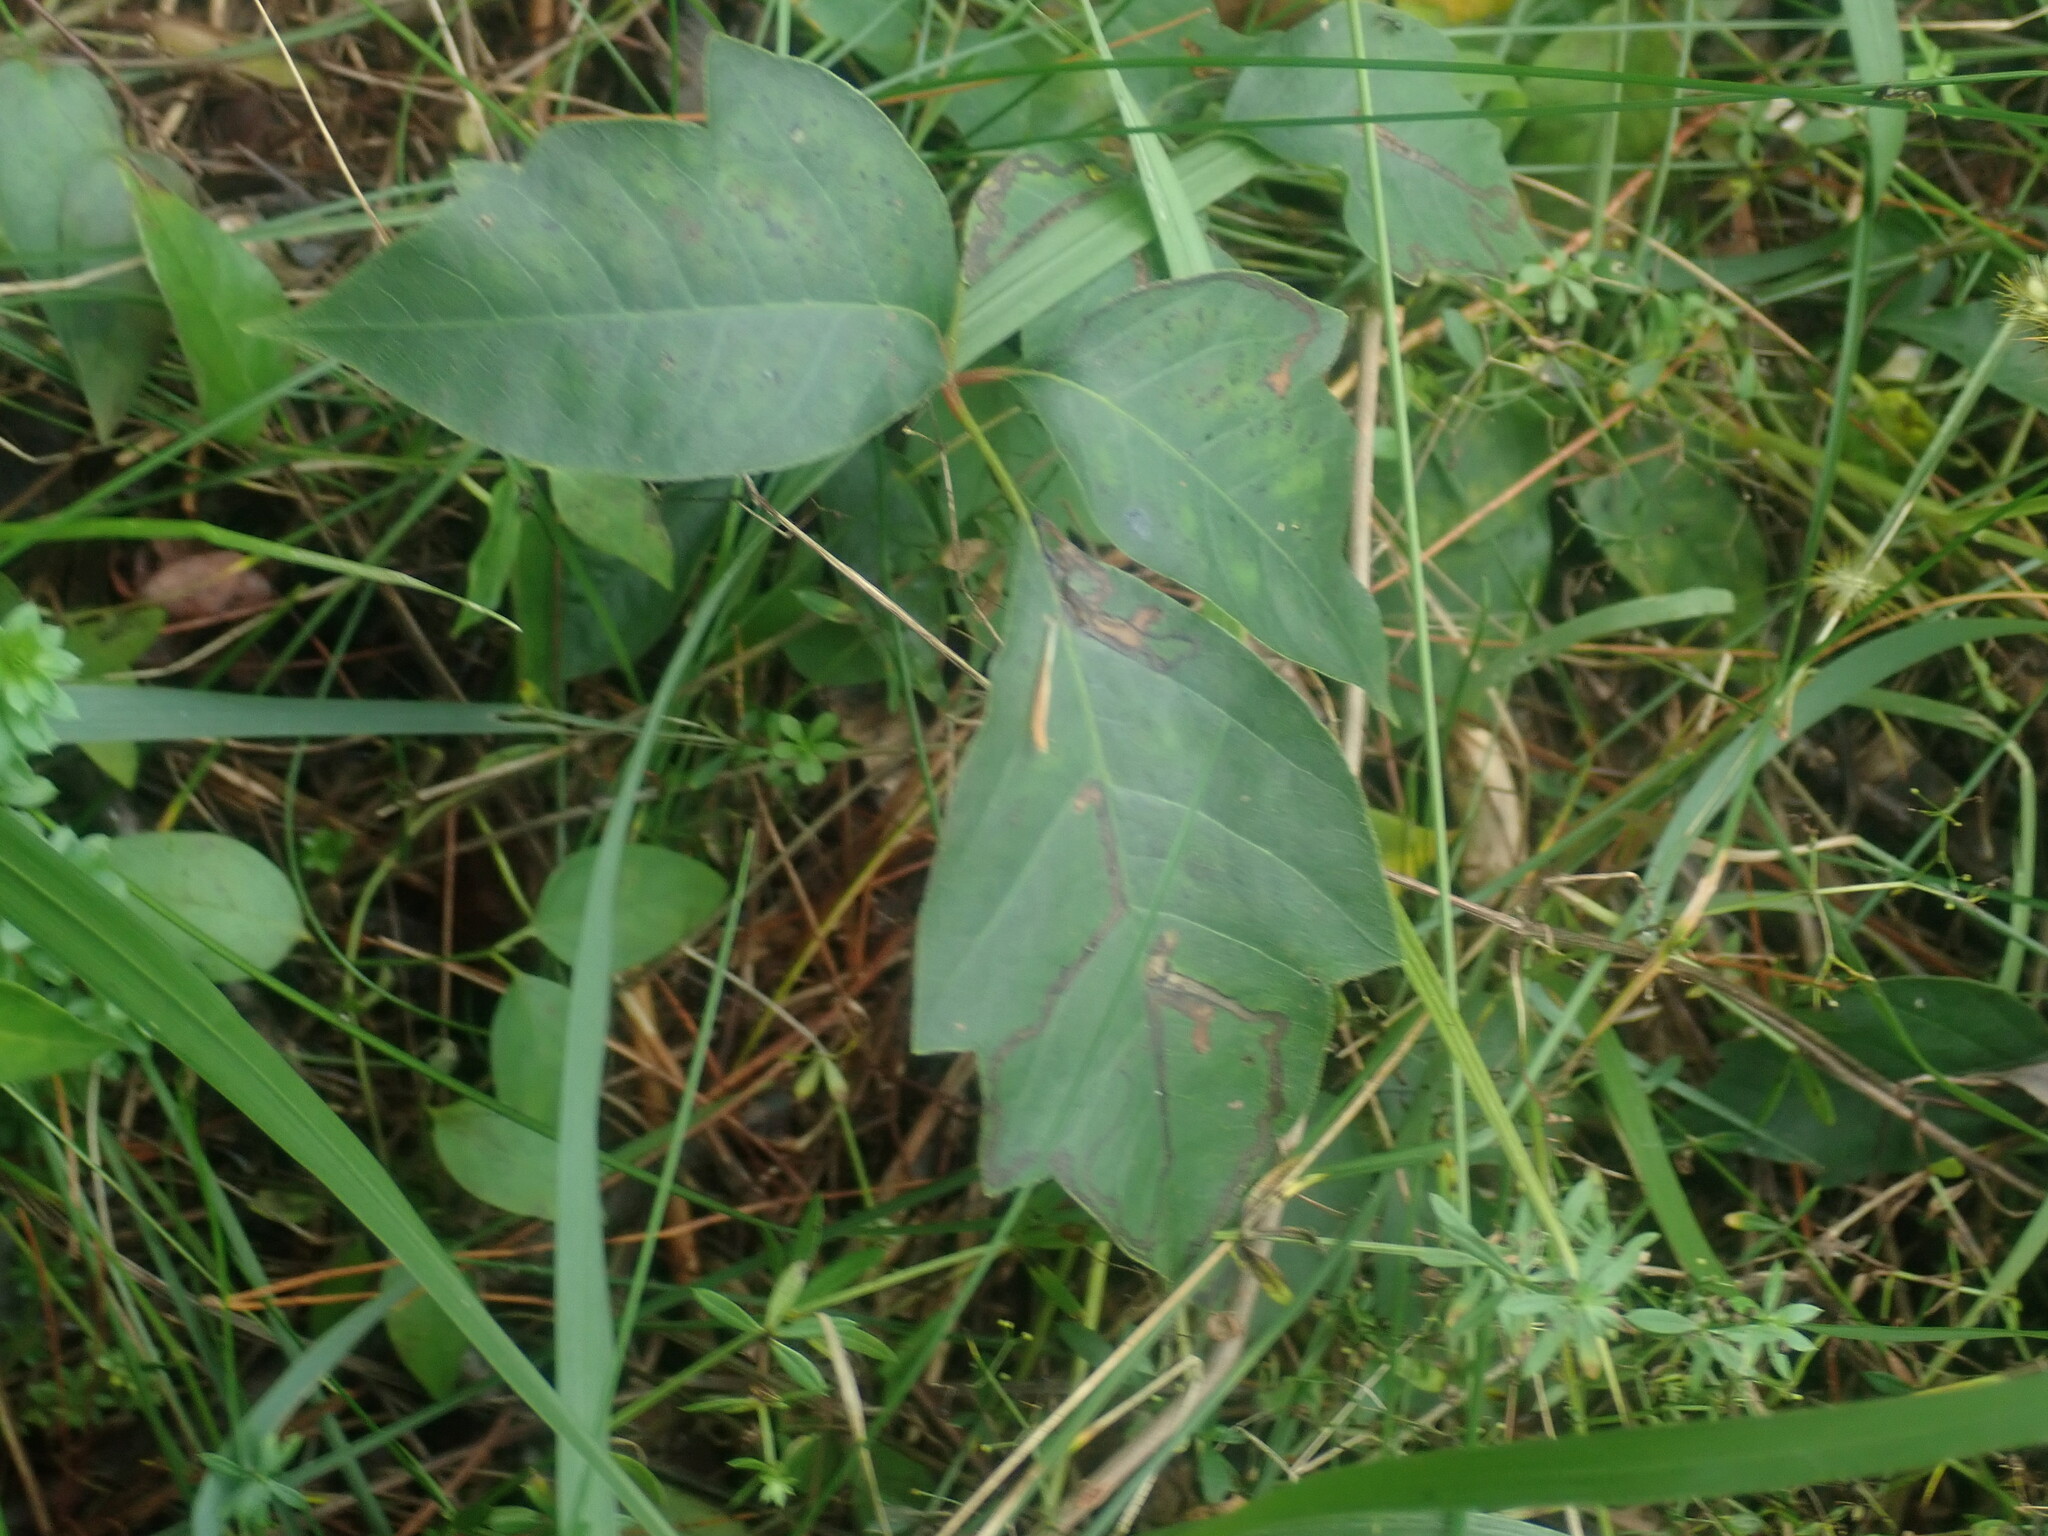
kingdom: Plantae
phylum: Tracheophyta
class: Magnoliopsida
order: Sapindales
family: Anacardiaceae
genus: Toxicodendron
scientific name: Toxicodendron
